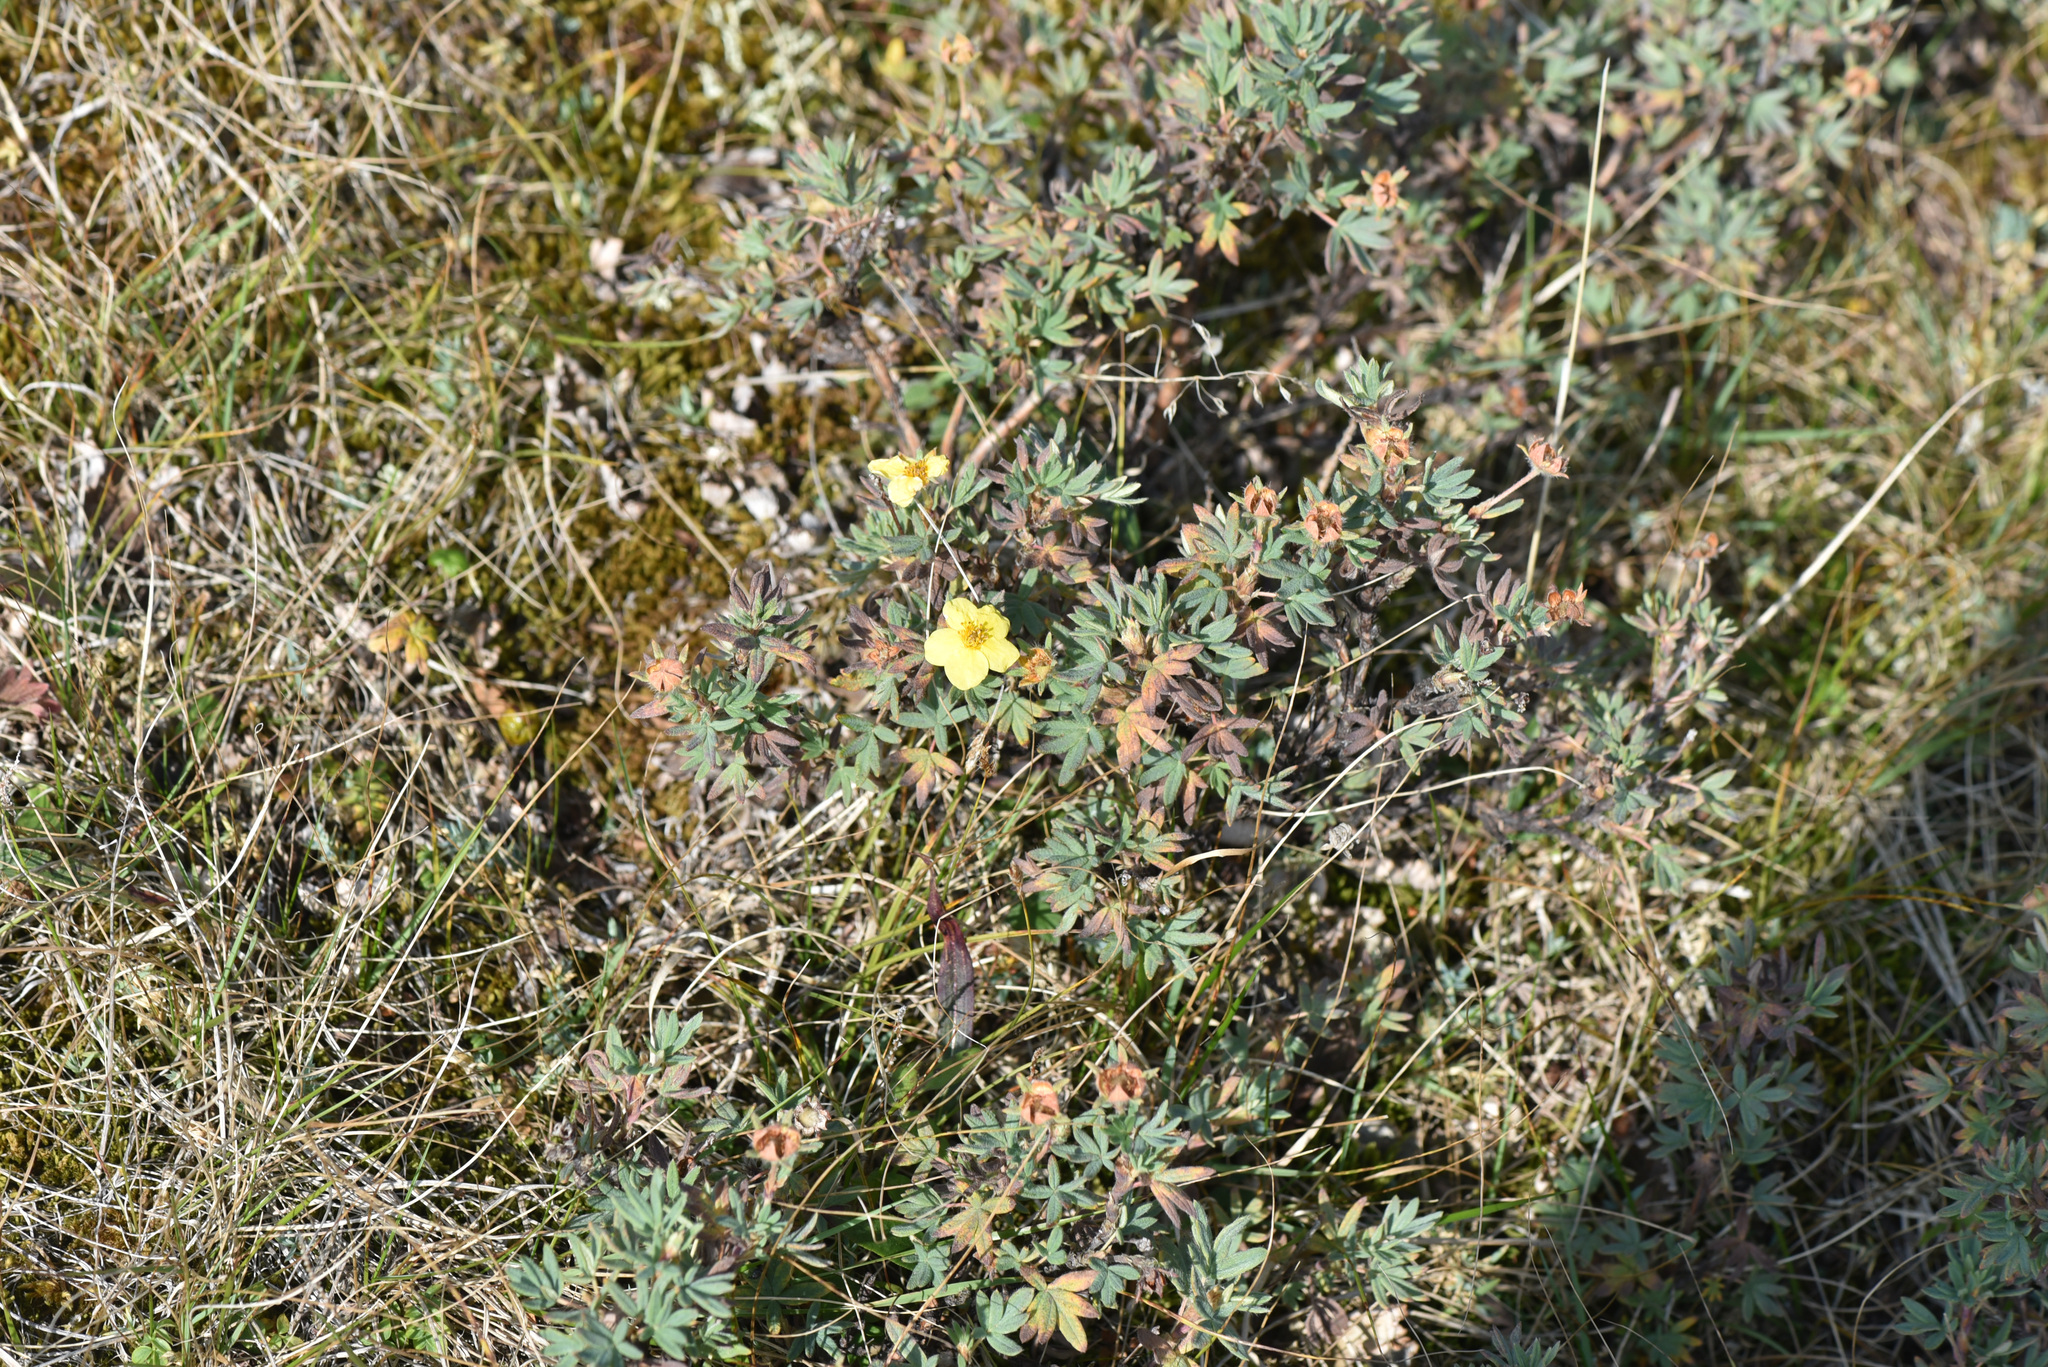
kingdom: Plantae
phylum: Tracheophyta
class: Magnoliopsida
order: Rosales
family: Rosaceae
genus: Dasiphora
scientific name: Dasiphora fruticosa
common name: Shrubby cinquefoil
